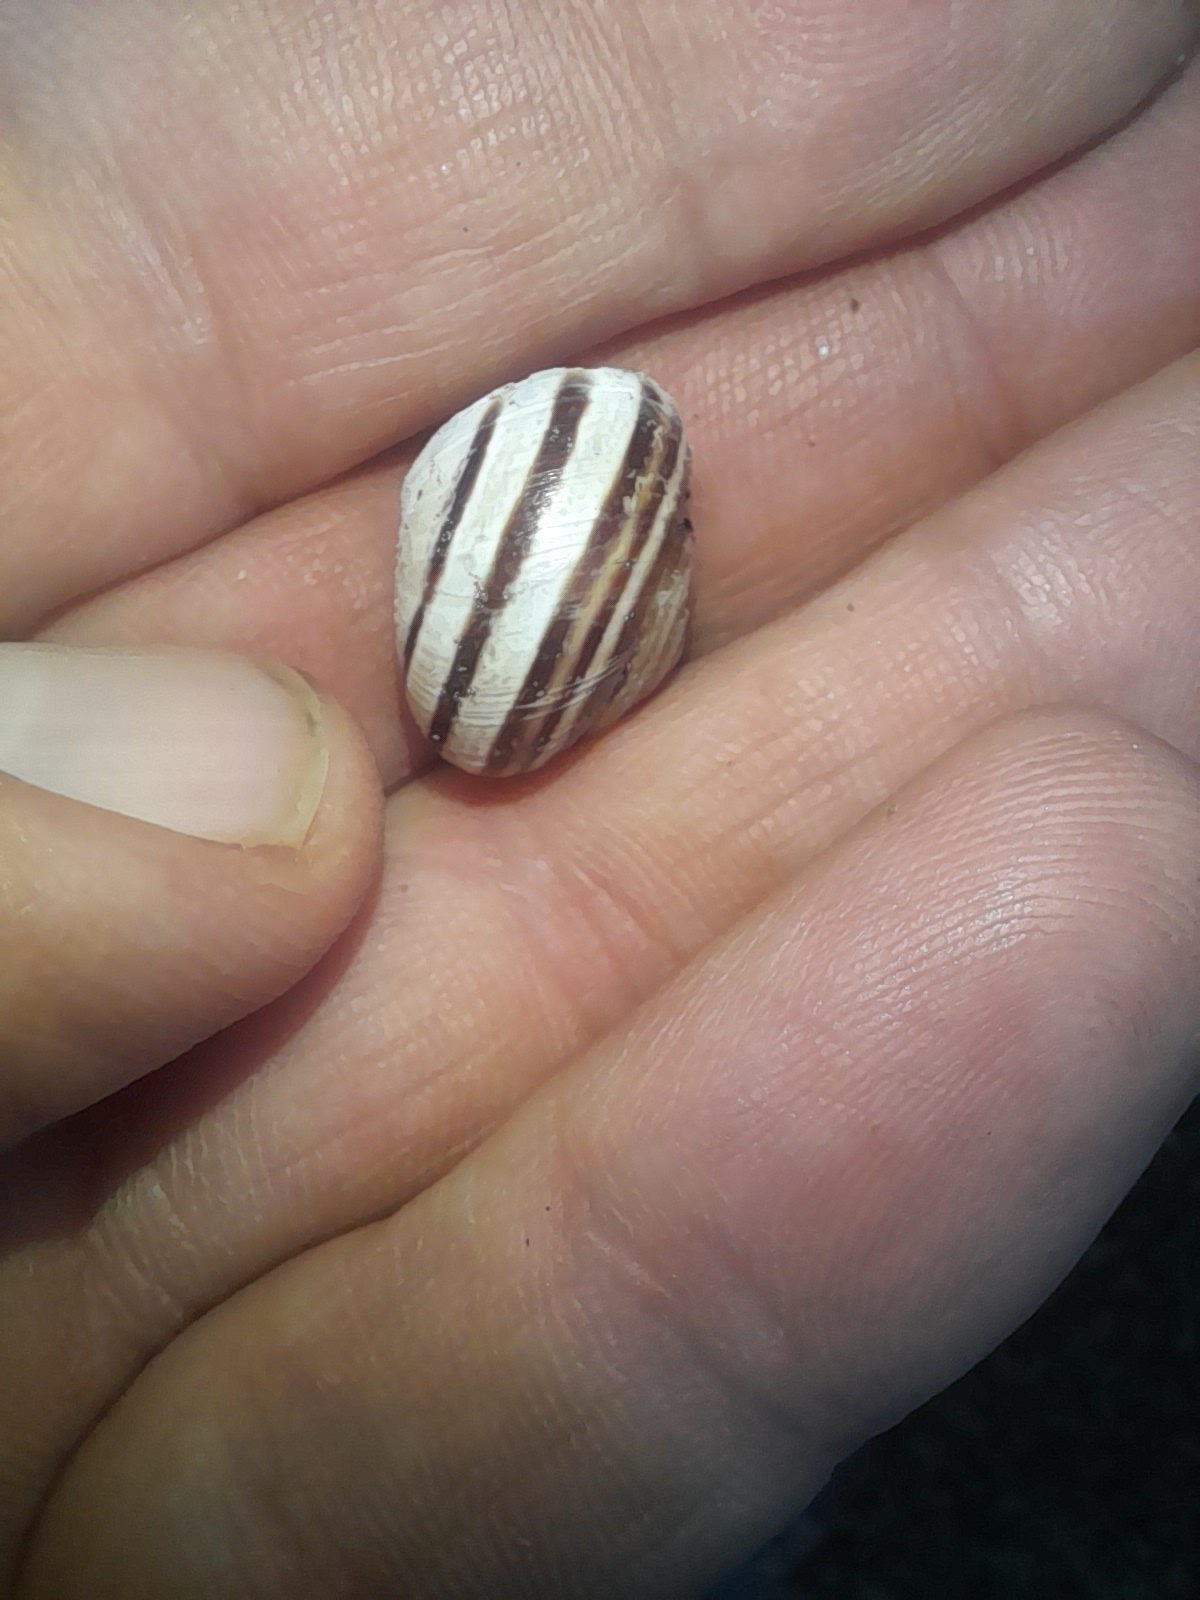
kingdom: Animalia
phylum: Mollusca
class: Gastropoda
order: Stylommatophora
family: Helicidae
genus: Eobania
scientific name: Eobania vermiculata
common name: Chocolateband snail
